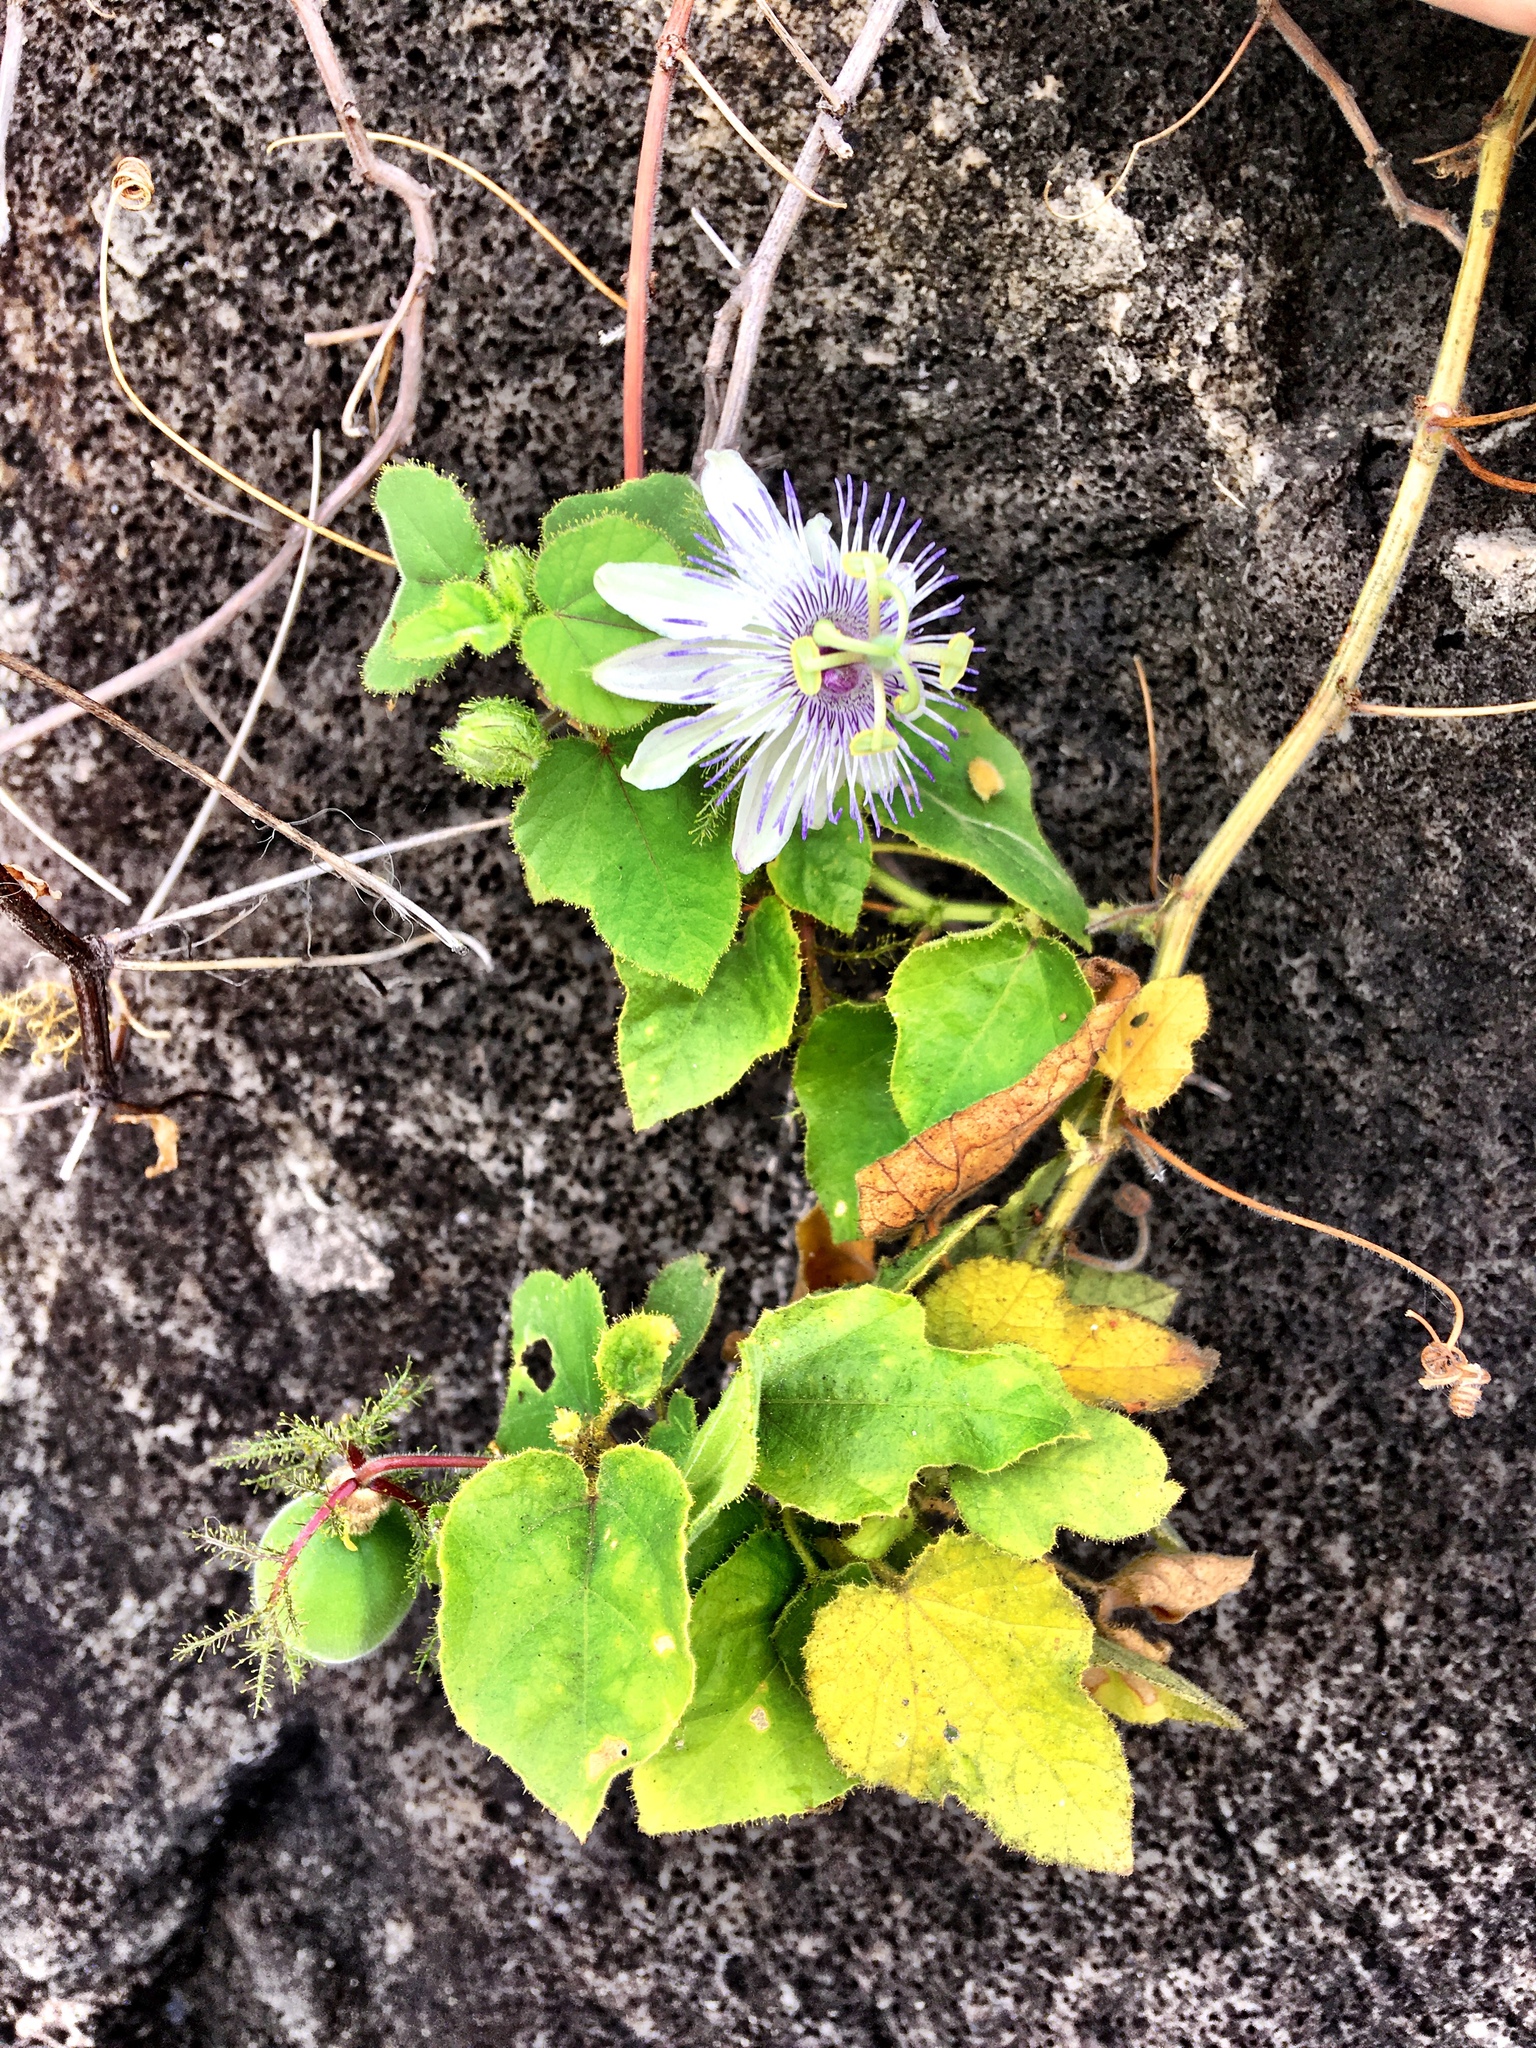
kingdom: Plantae
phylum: Tracheophyta
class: Magnoliopsida
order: Malpighiales
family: Passifloraceae
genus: Passiflora
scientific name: Passiflora foetida
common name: Fetid passionflower
